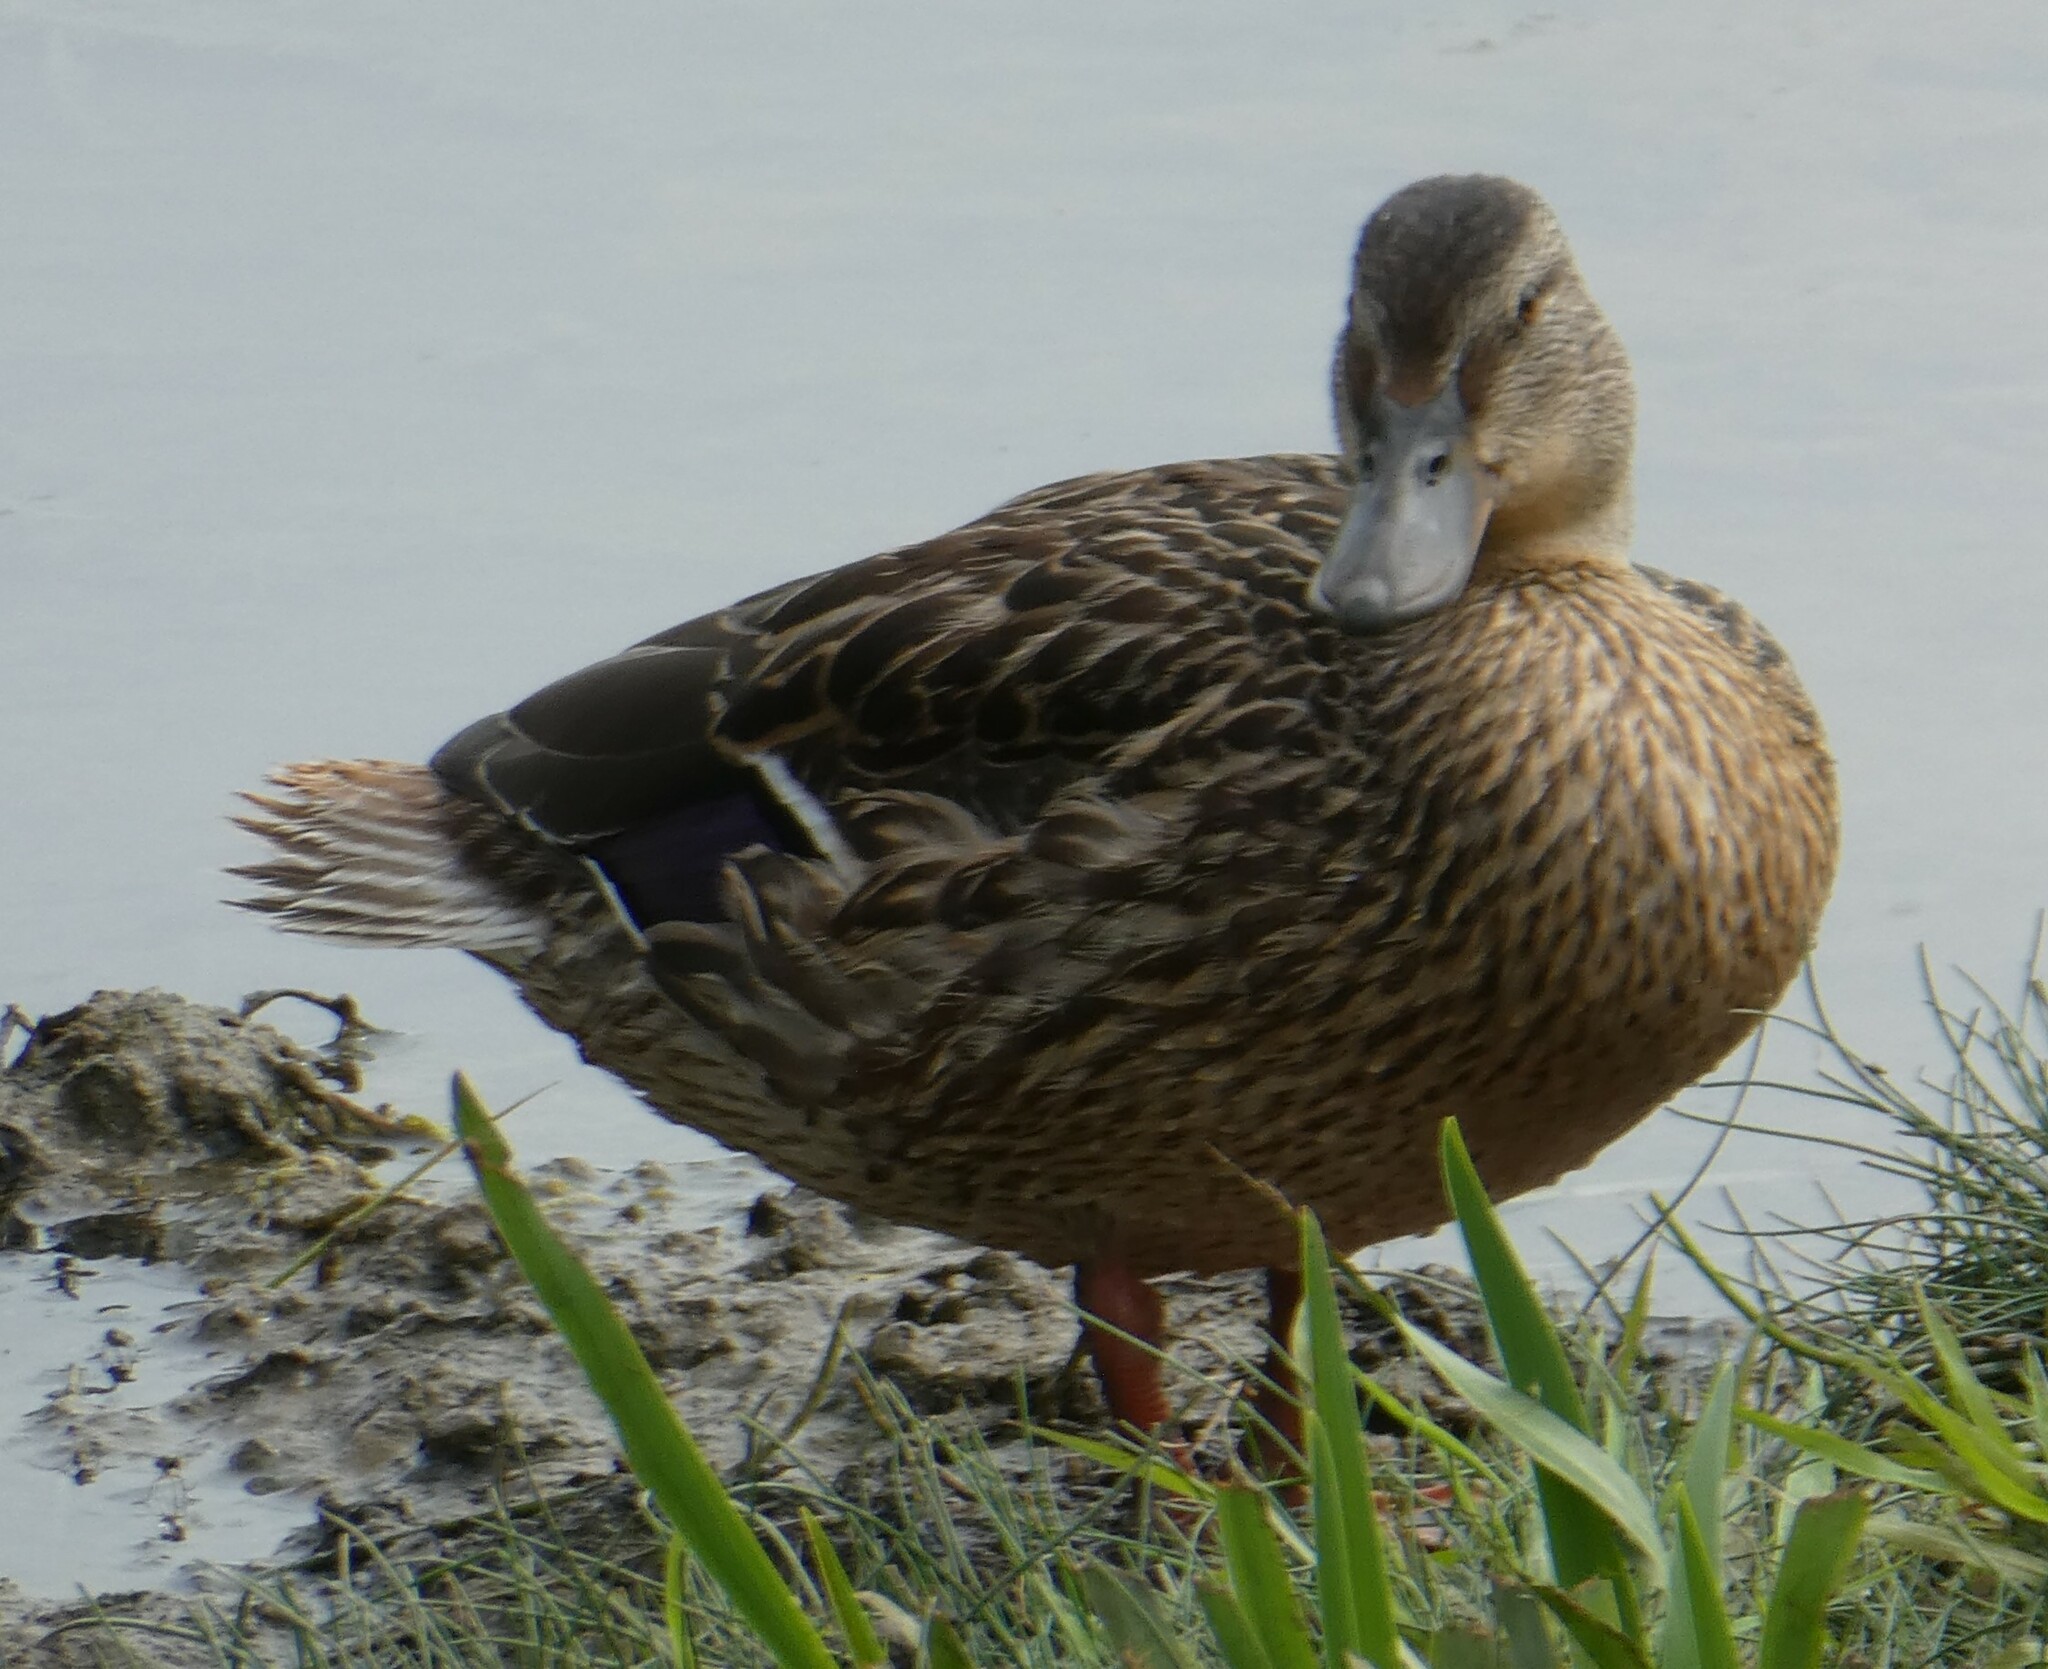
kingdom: Animalia
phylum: Chordata
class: Aves
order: Anseriformes
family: Anatidae
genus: Anas
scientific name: Anas platyrhynchos
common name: Mallard
